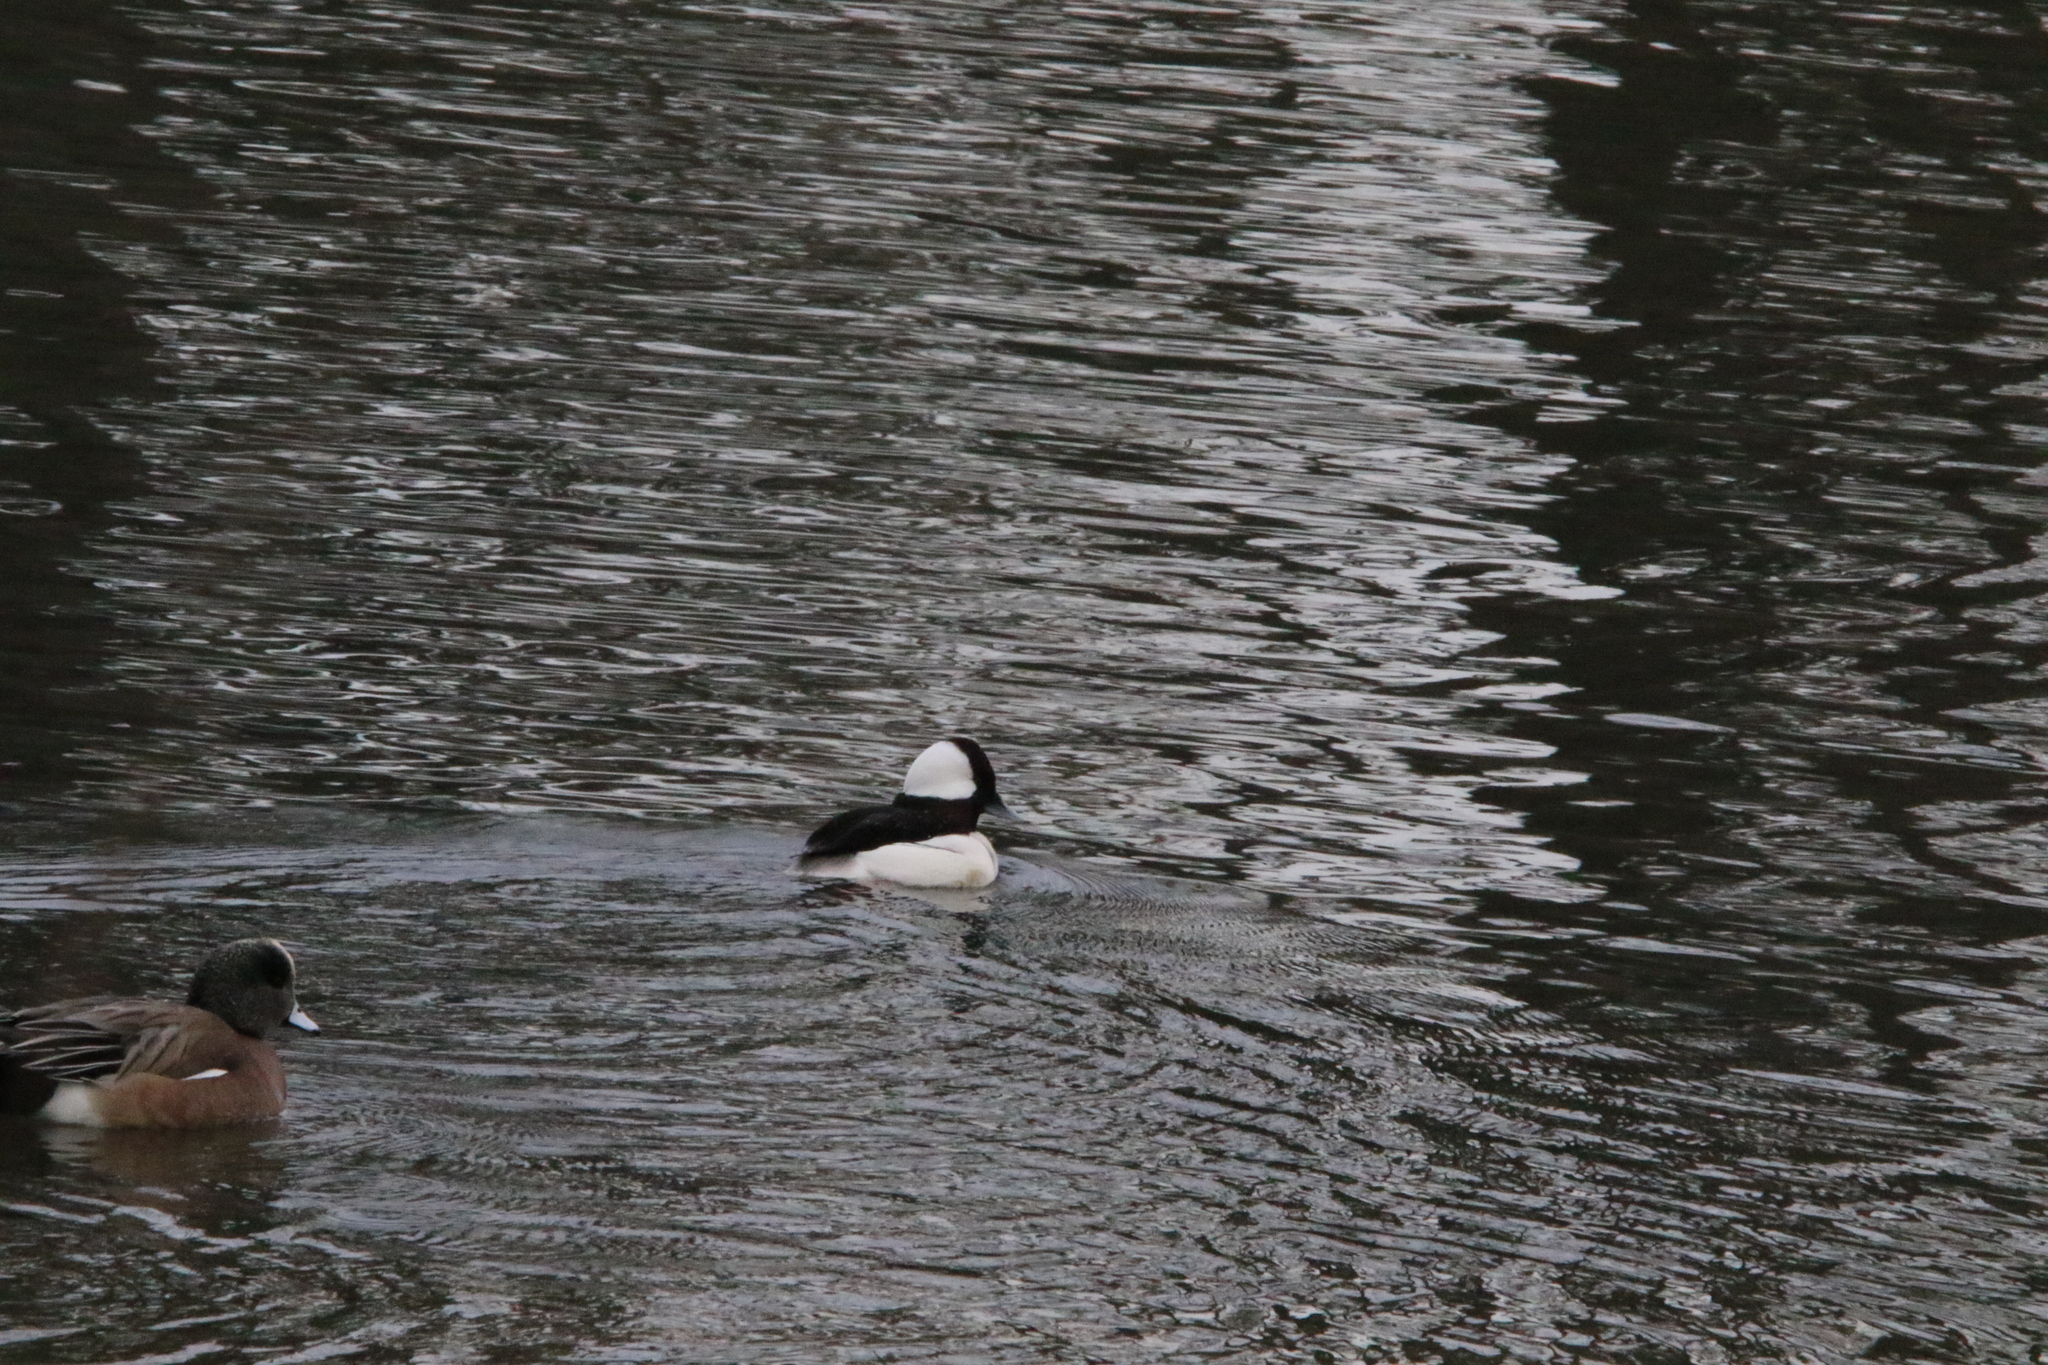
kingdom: Animalia
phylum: Chordata
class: Aves
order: Anseriformes
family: Anatidae
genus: Bucephala
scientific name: Bucephala albeola
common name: Bufflehead
